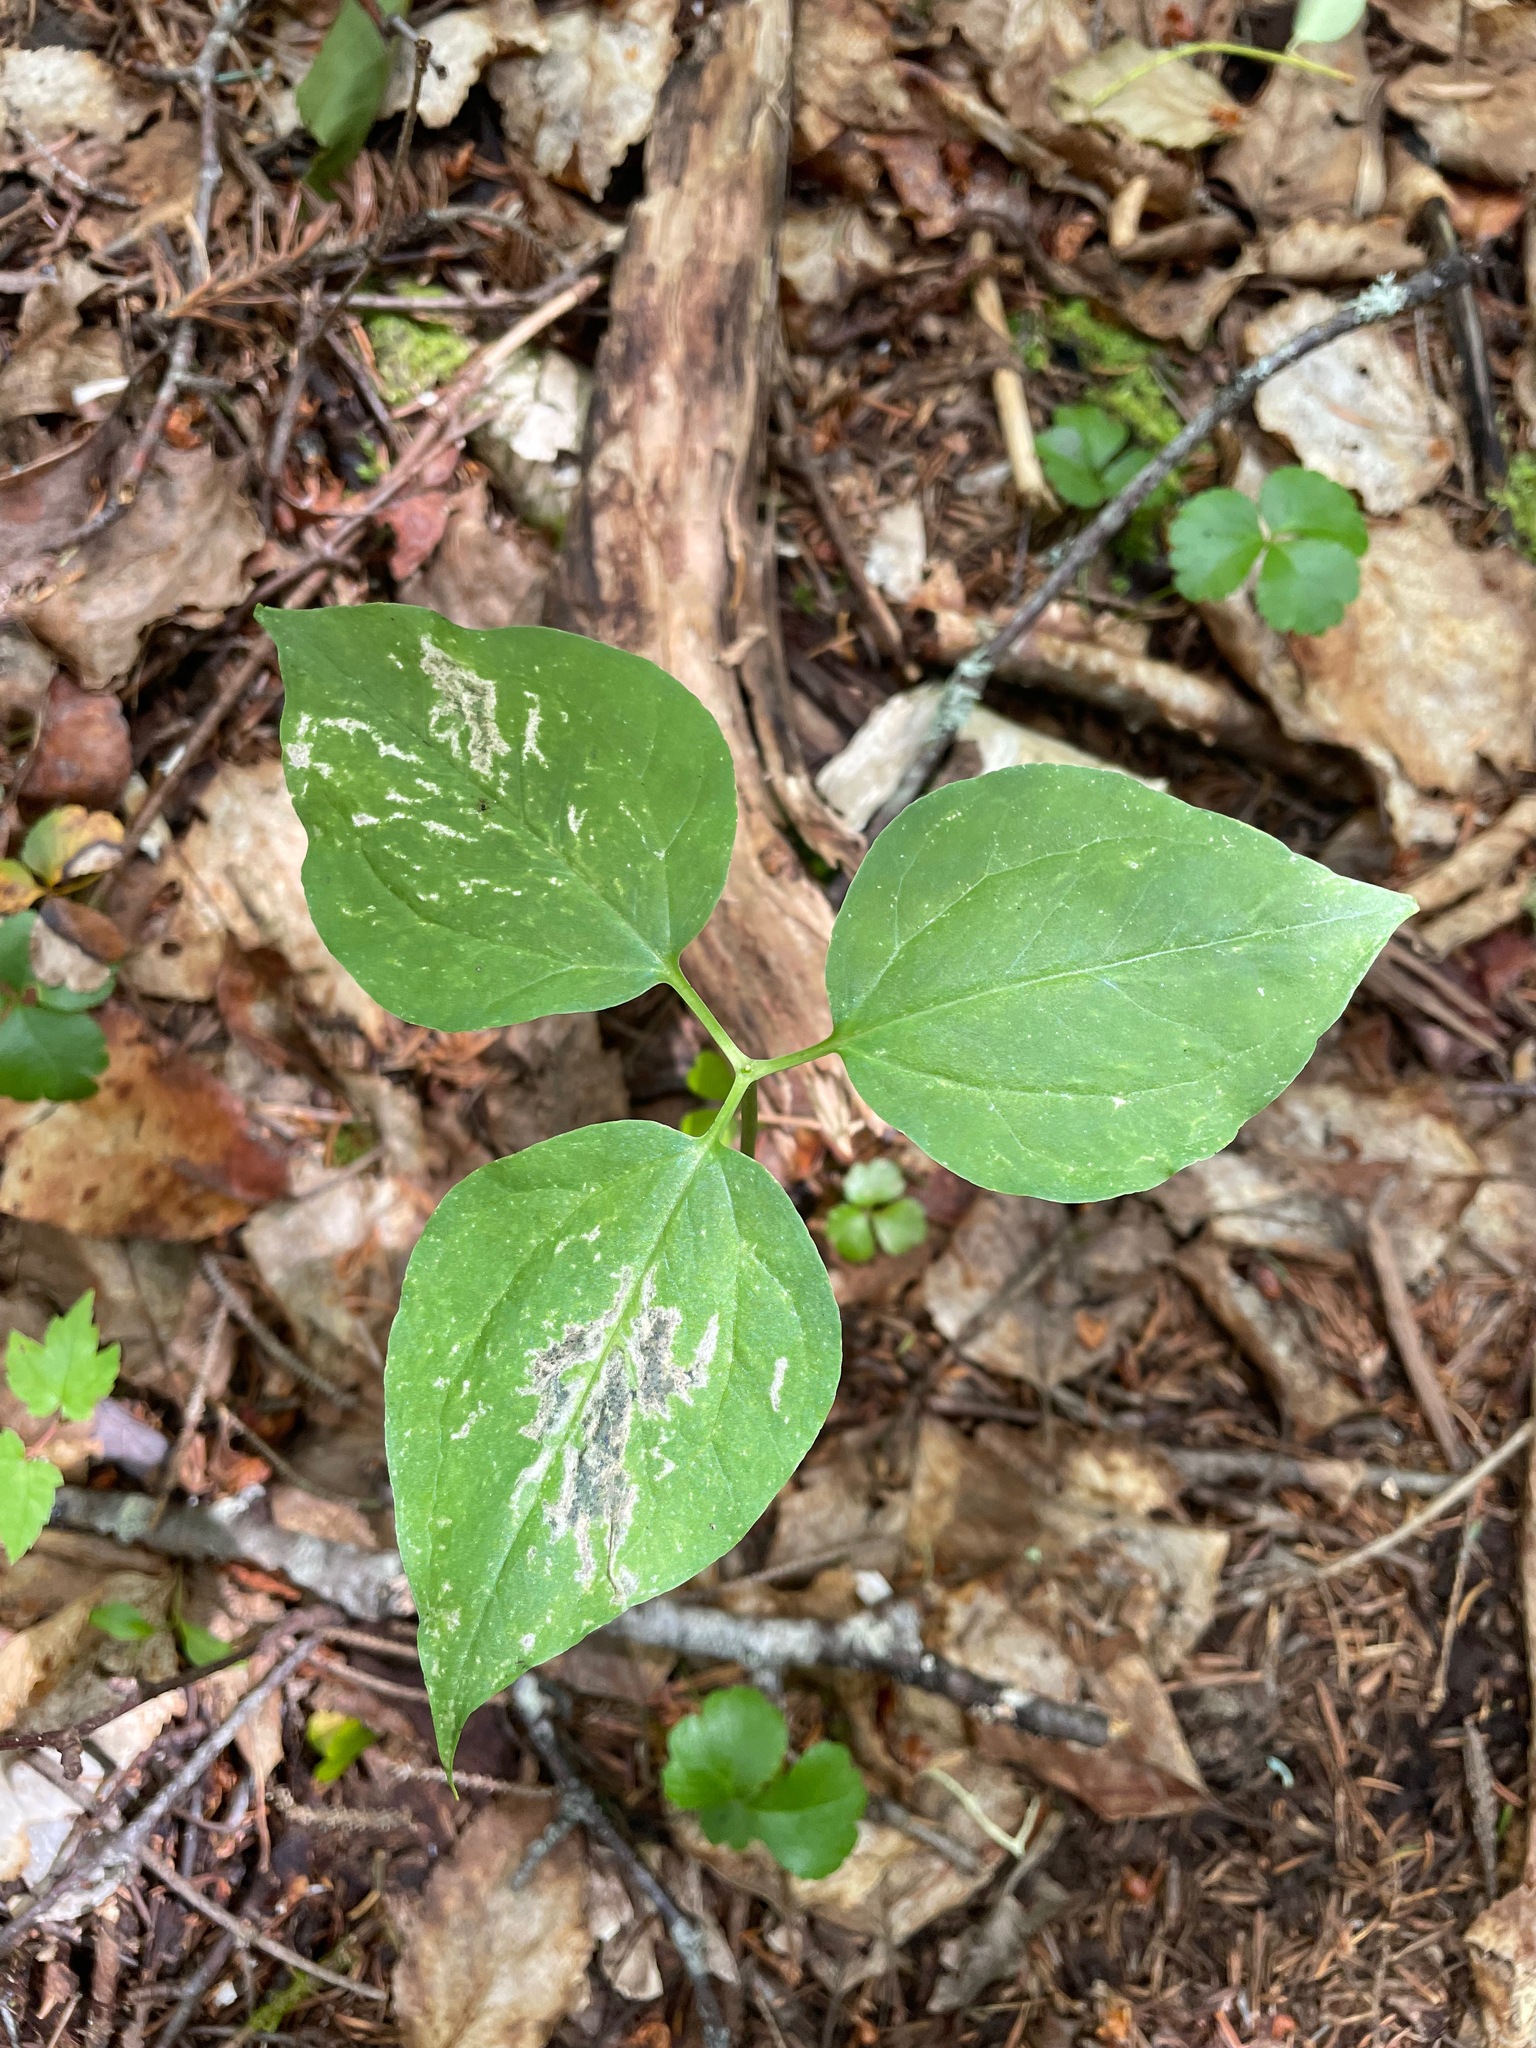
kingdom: Plantae
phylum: Tracheophyta
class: Liliopsida
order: Liliales
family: Melanthiaceae
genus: Trillium
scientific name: Trillium undulatum
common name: Paint trillium
